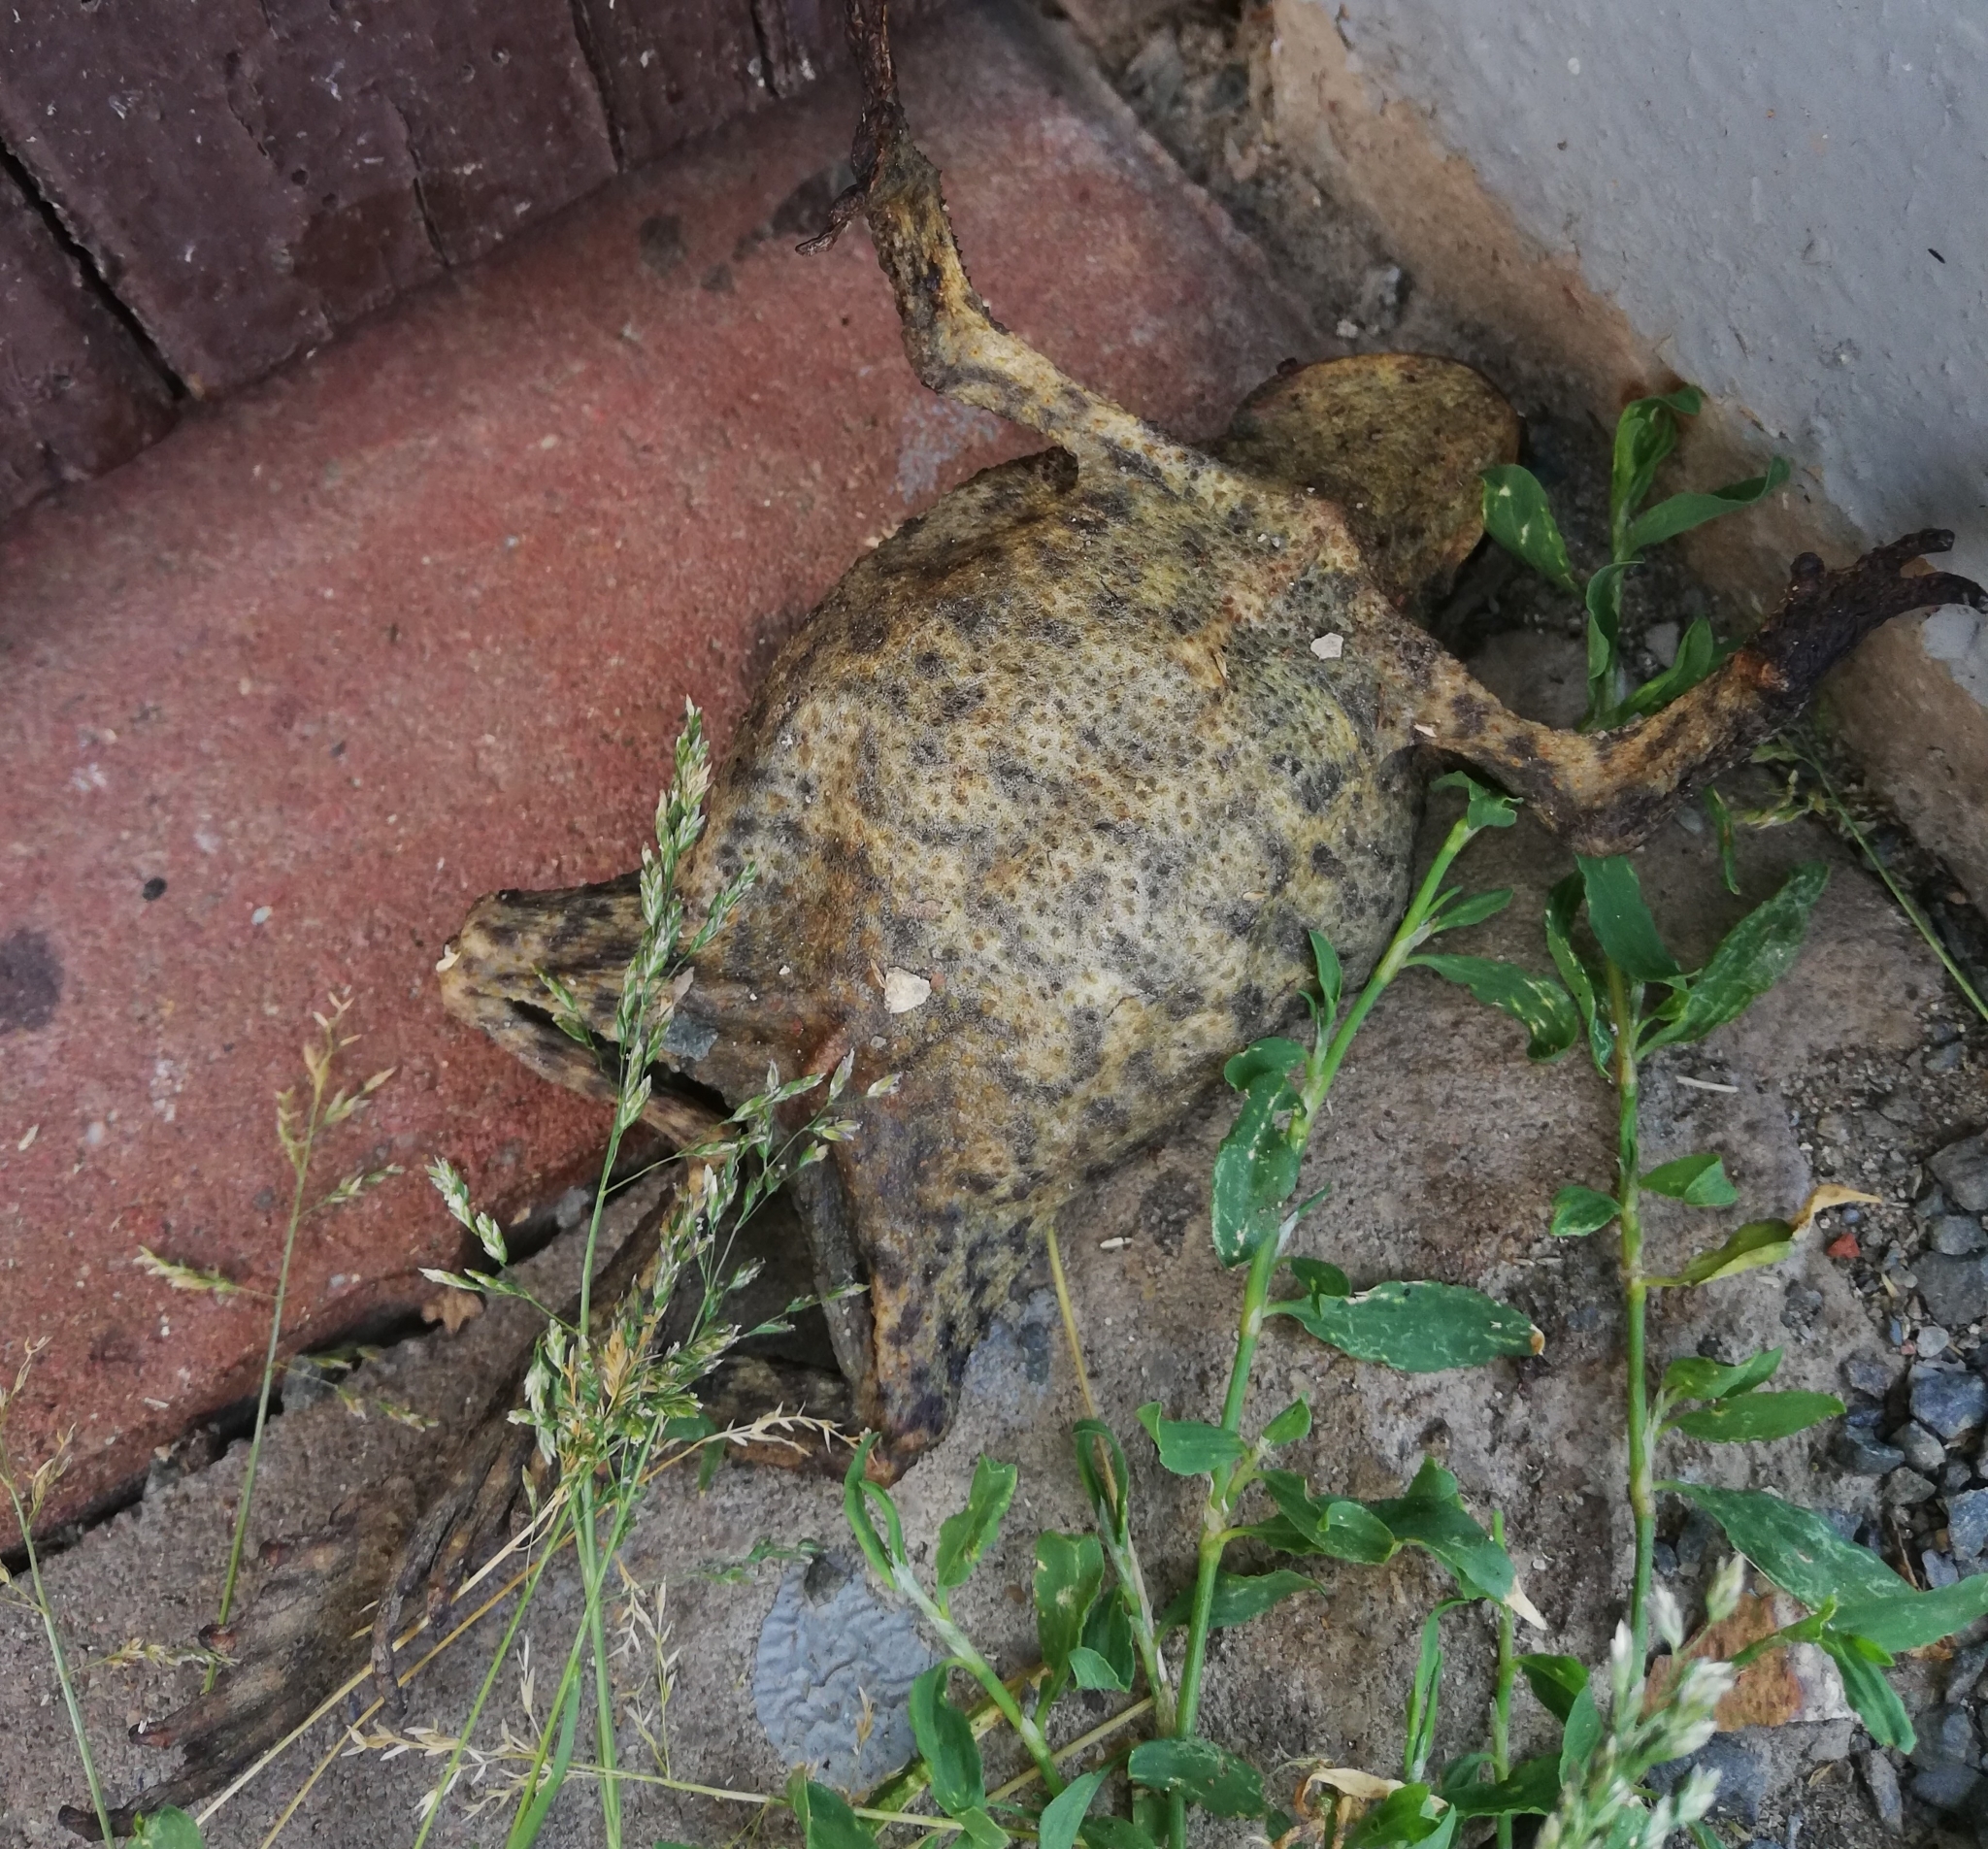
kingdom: Animalia
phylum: Chordata
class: Amphibia
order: Anura
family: Bufonidae
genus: Bufo
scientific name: Bufo bufo
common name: Common toad
